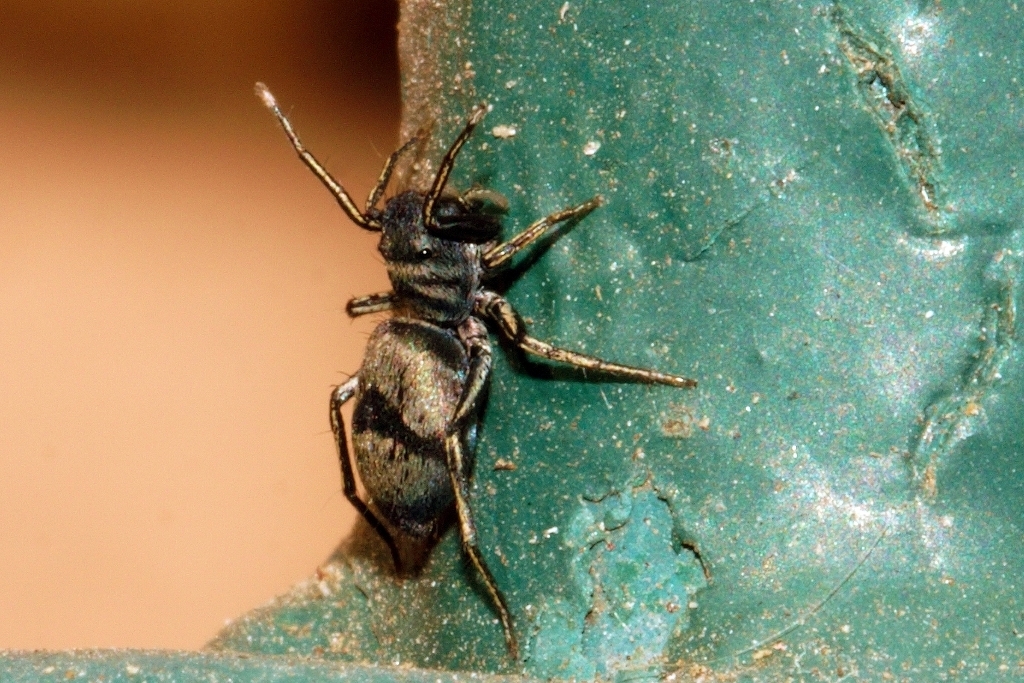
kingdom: Animalia
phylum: Arthropoda
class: Arachnida
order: Araneae
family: Salticidae
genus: Mexcala
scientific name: Mexcala elegans
